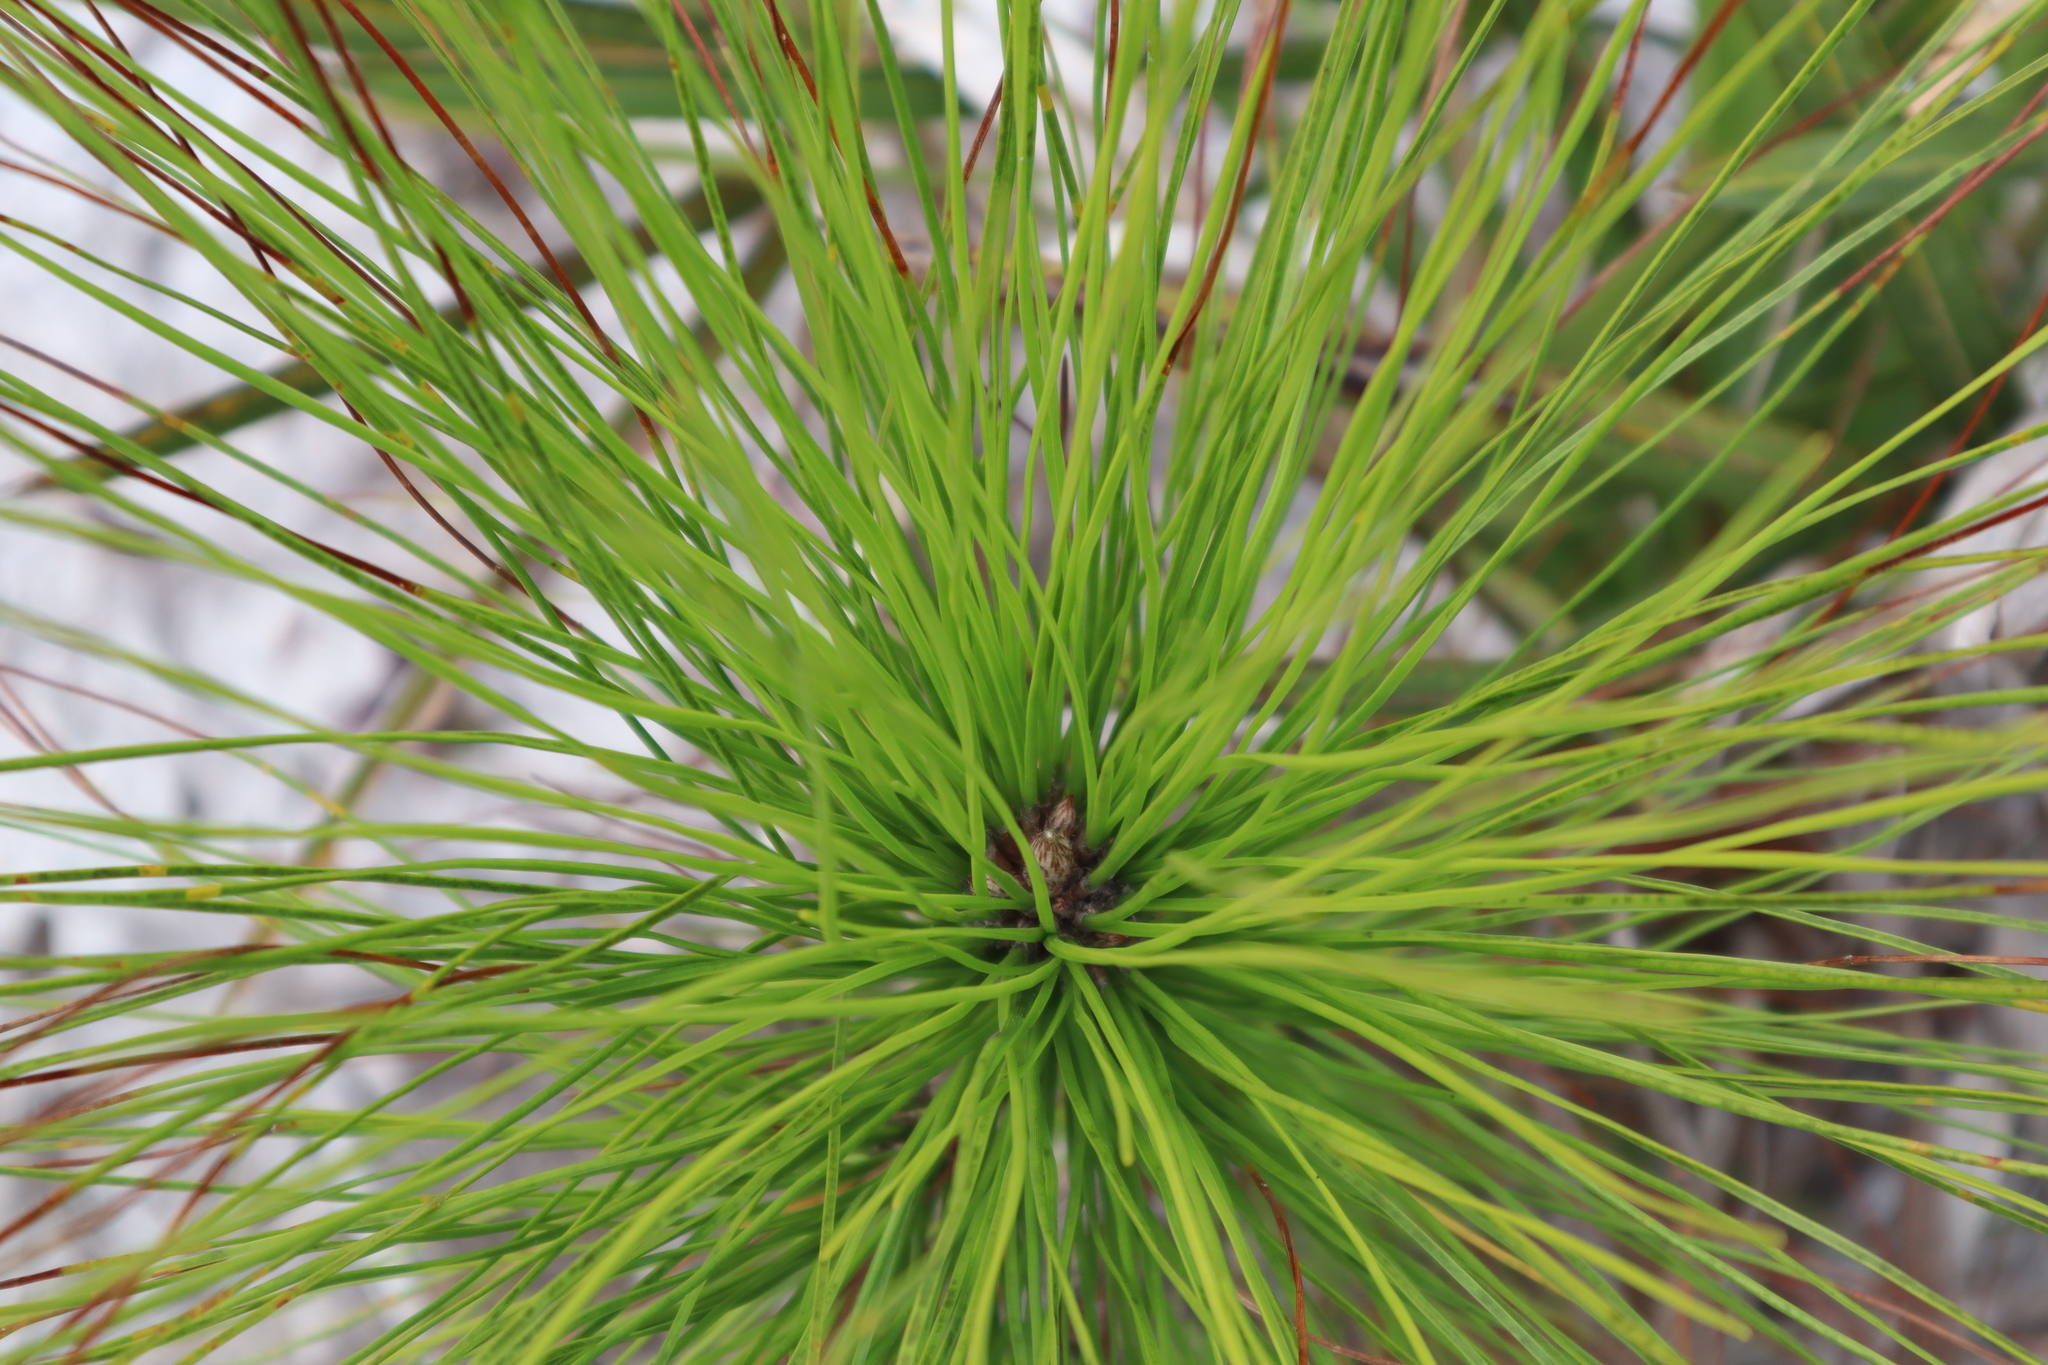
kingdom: Plantae
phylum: Tracheophyta
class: Pinopsida
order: Pinales
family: Pinaceae
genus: Pinus
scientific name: Pinus elliottii
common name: Slash pine
